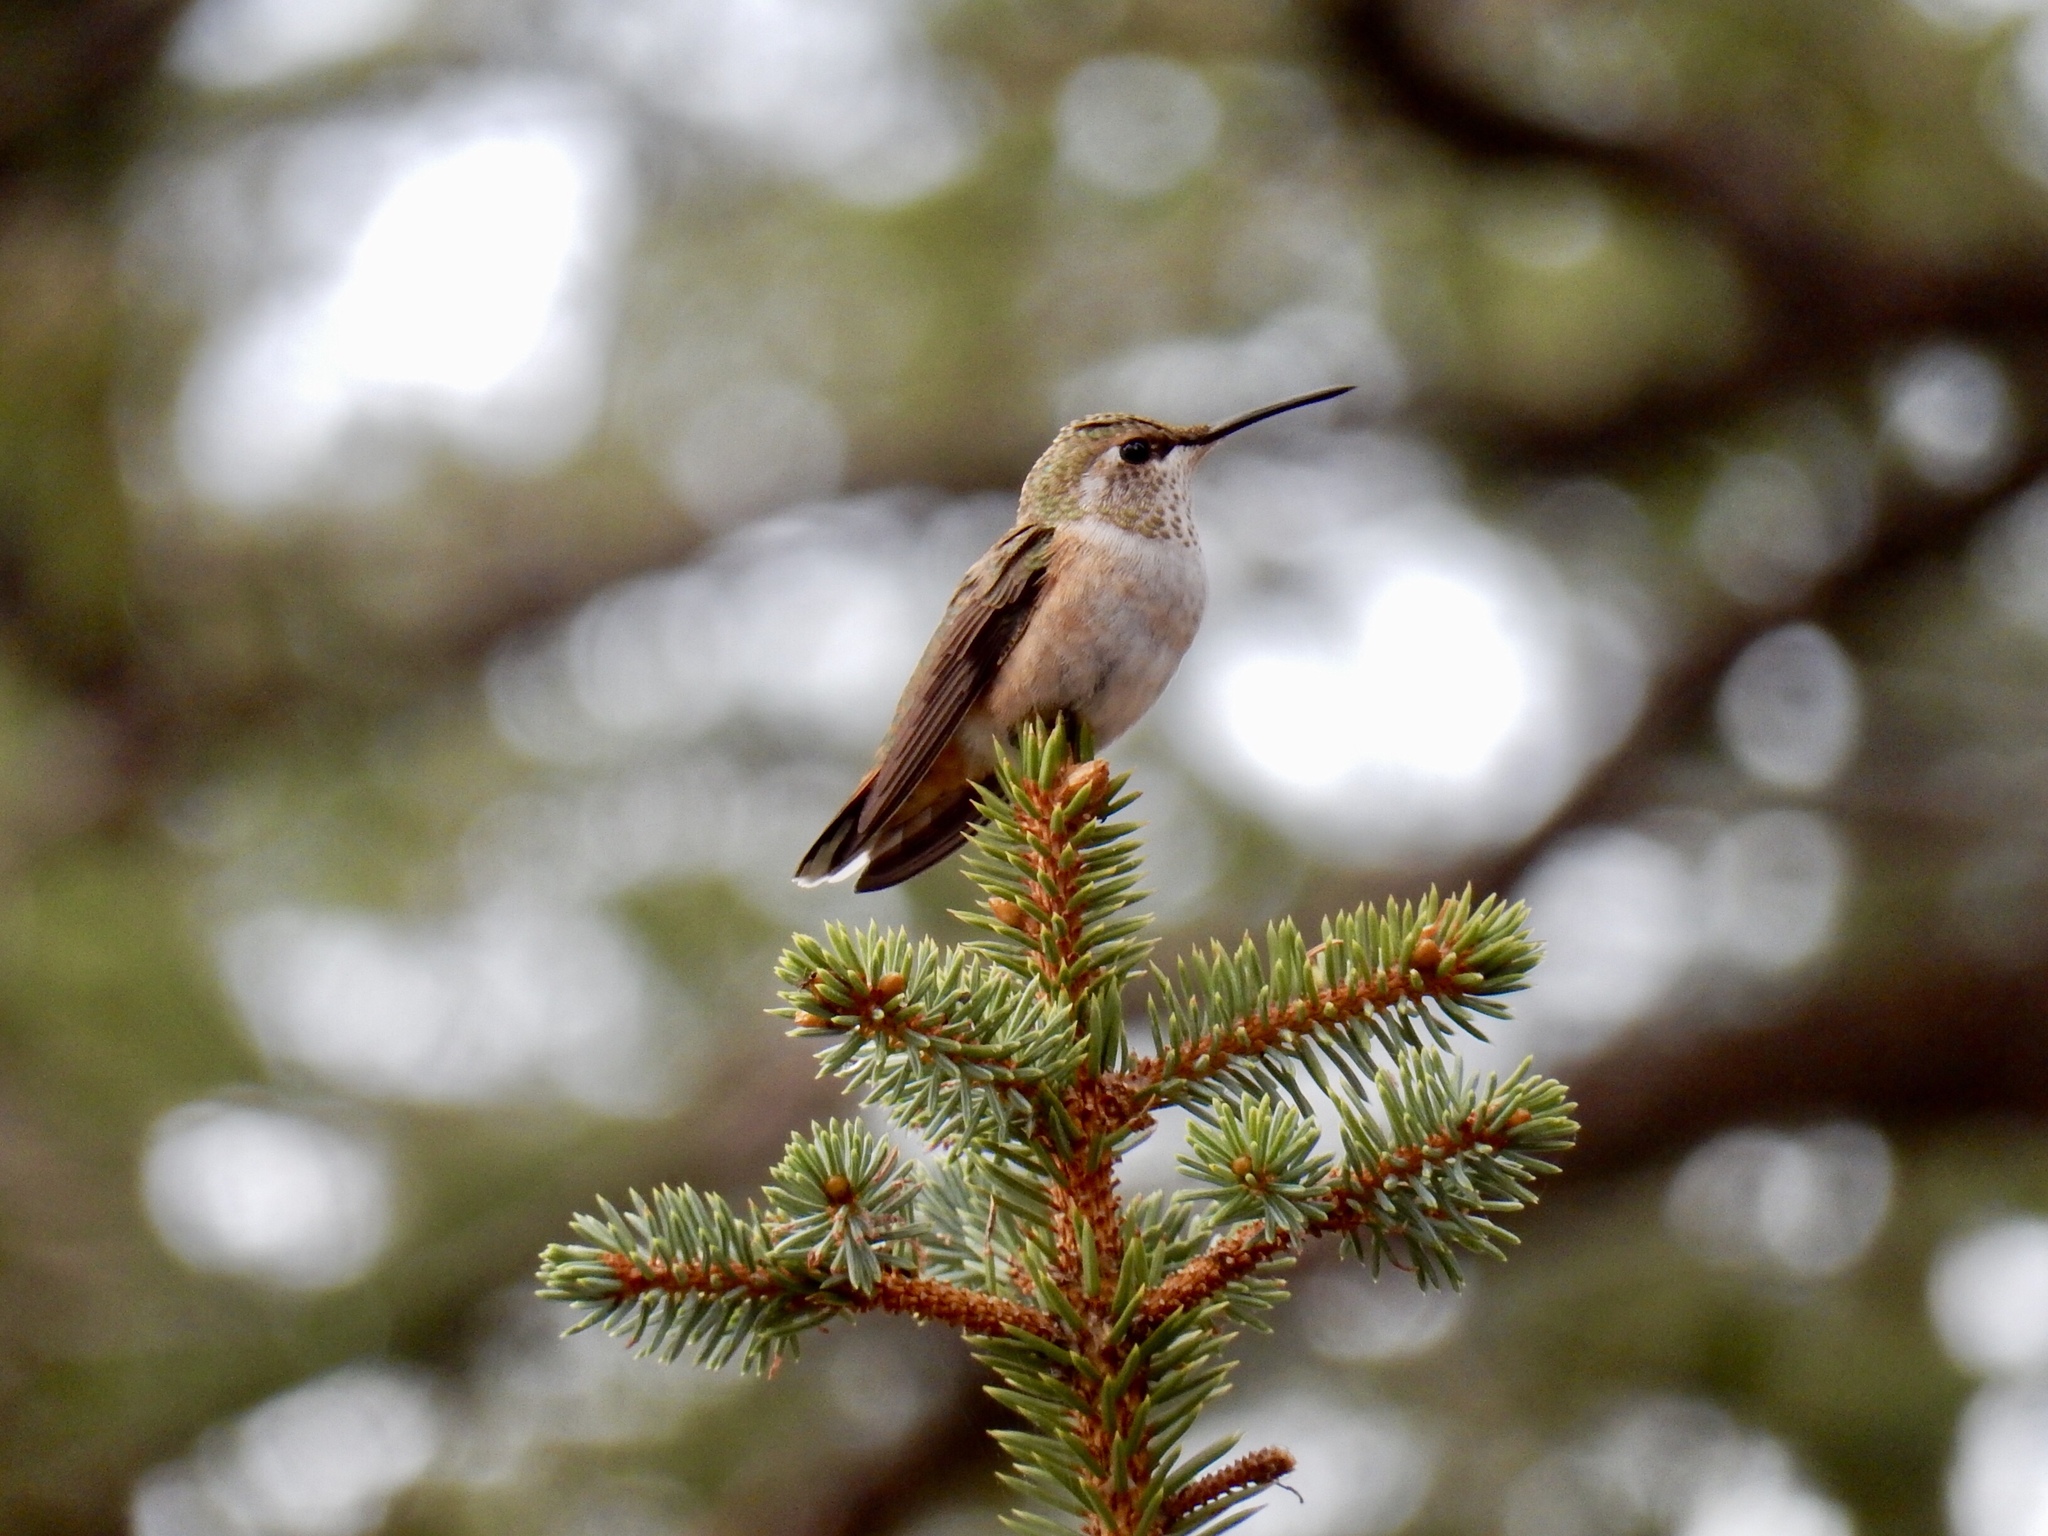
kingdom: Animalia
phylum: Chordata
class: Aves
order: Apodiformes
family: Trochilidae
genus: Selasphorus
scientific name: Selasphorus platycercus
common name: Broad-tailed hummingbird
